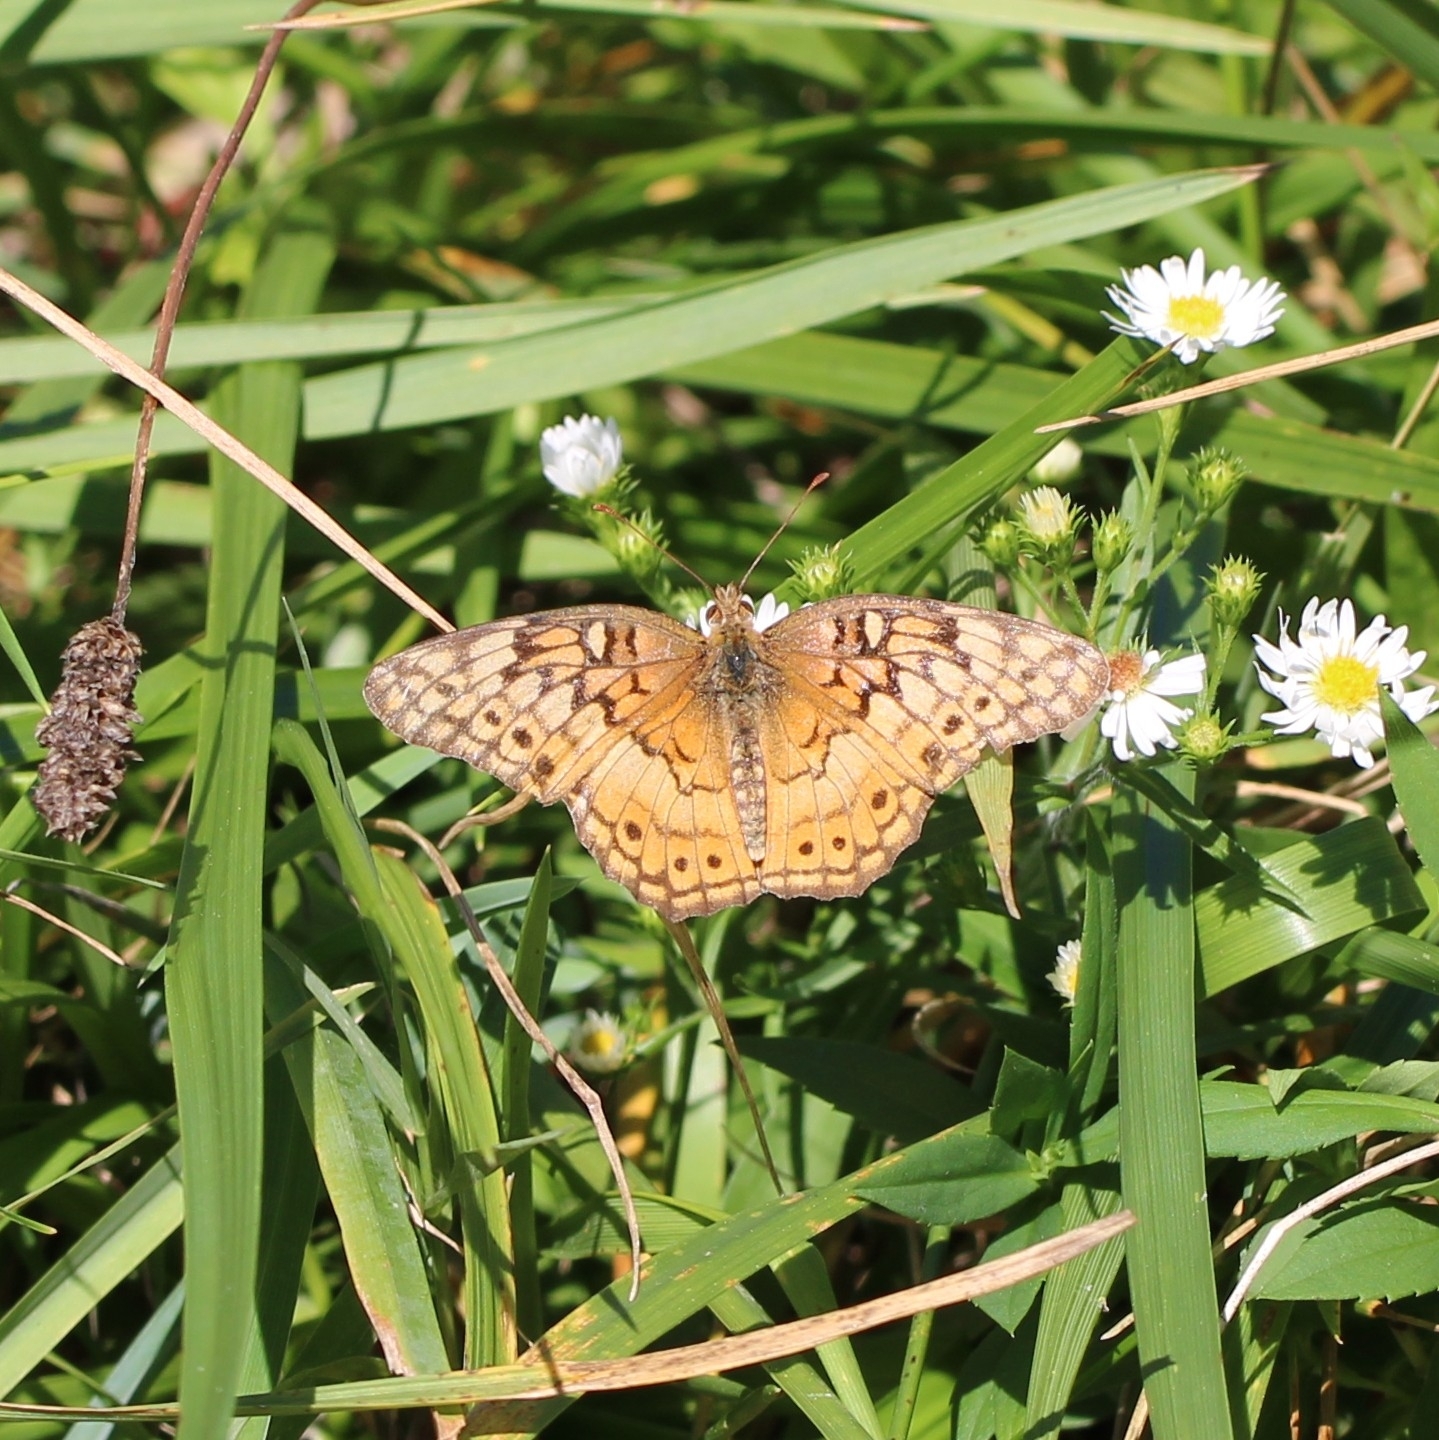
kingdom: Animalia
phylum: Arthropoda
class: Insecta
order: Lepidoptera
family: Nymphalidae
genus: Euptoieta
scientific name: Euptoieta claudia
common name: Variegated fritillary
